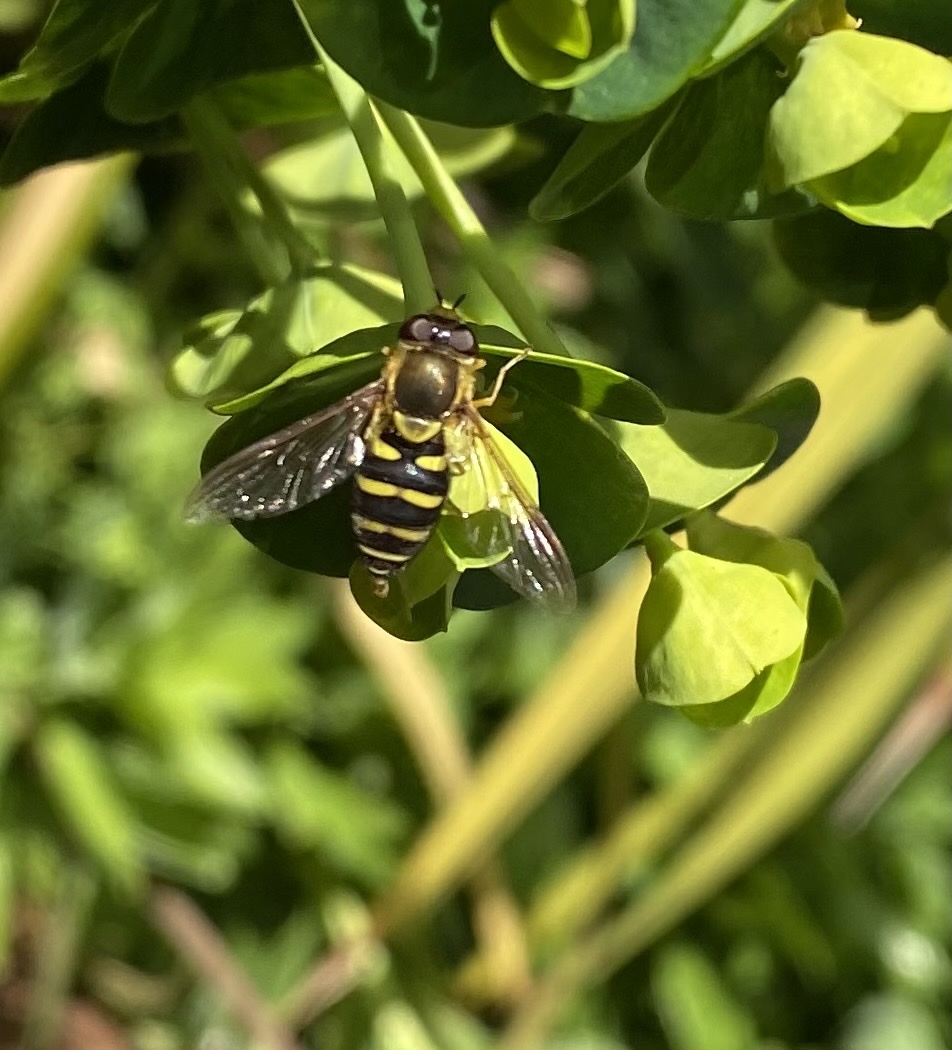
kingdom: Animalia
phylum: Arthropoda
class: Insecta
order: Diptera
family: Syrphidae
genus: Syrphus
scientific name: Syrphus opinator
